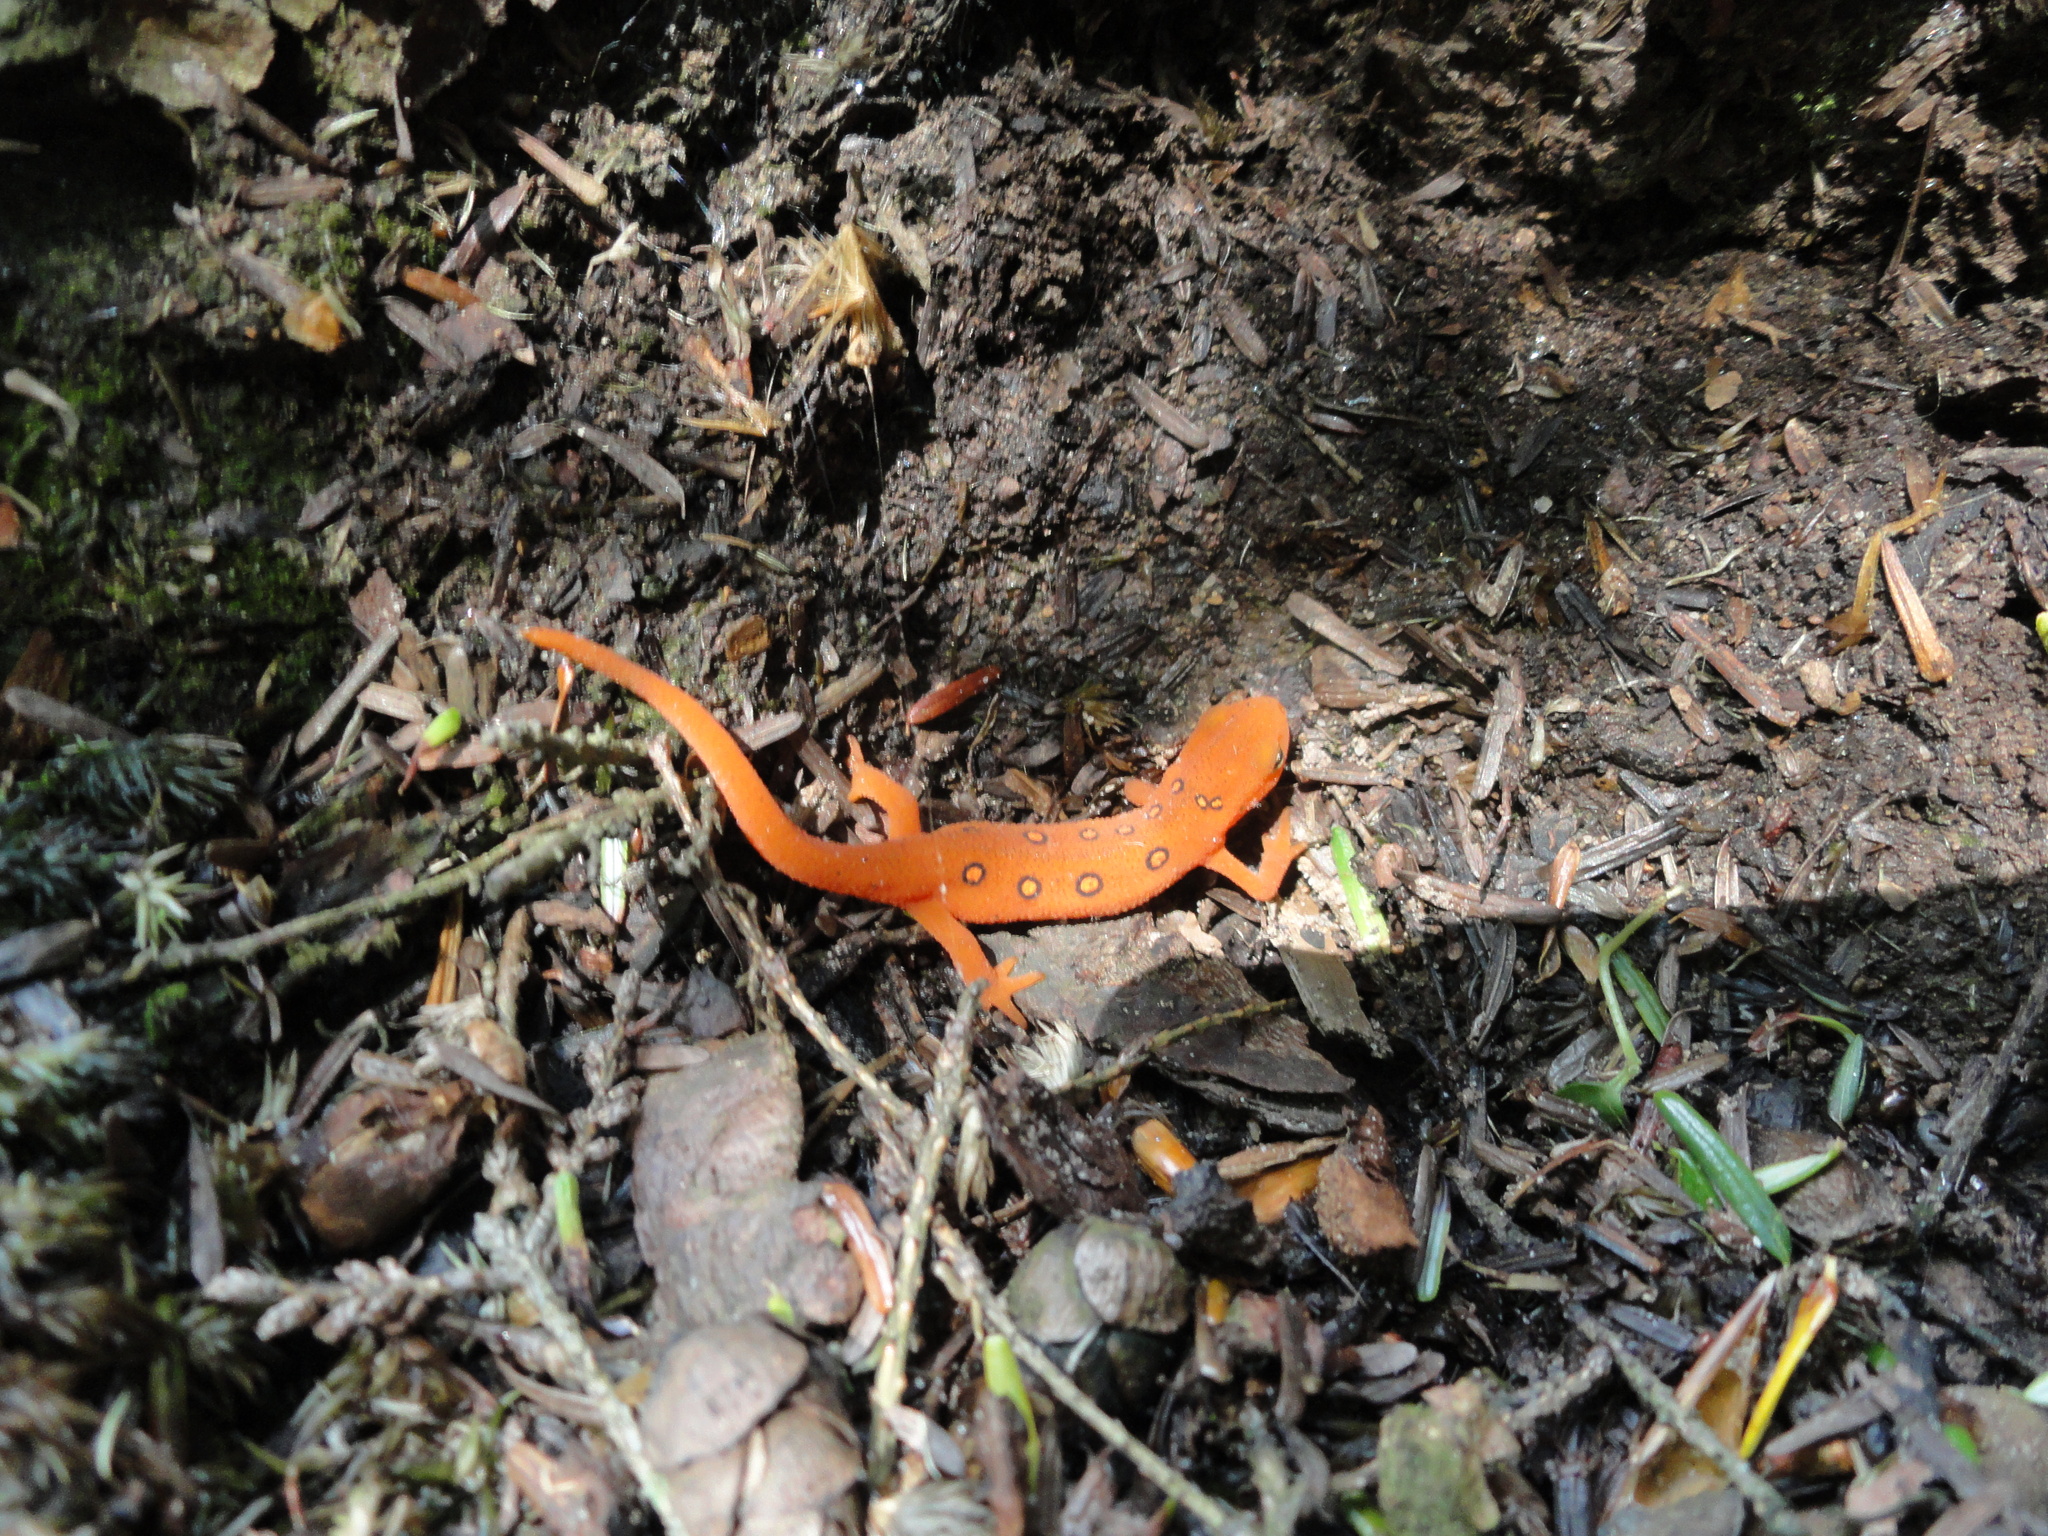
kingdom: Animalia
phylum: Chordata
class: Amphibia
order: Caudata
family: Salamandridae
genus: Notophthalmus
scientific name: Notophthalmus viridescens
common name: Eastern newt
